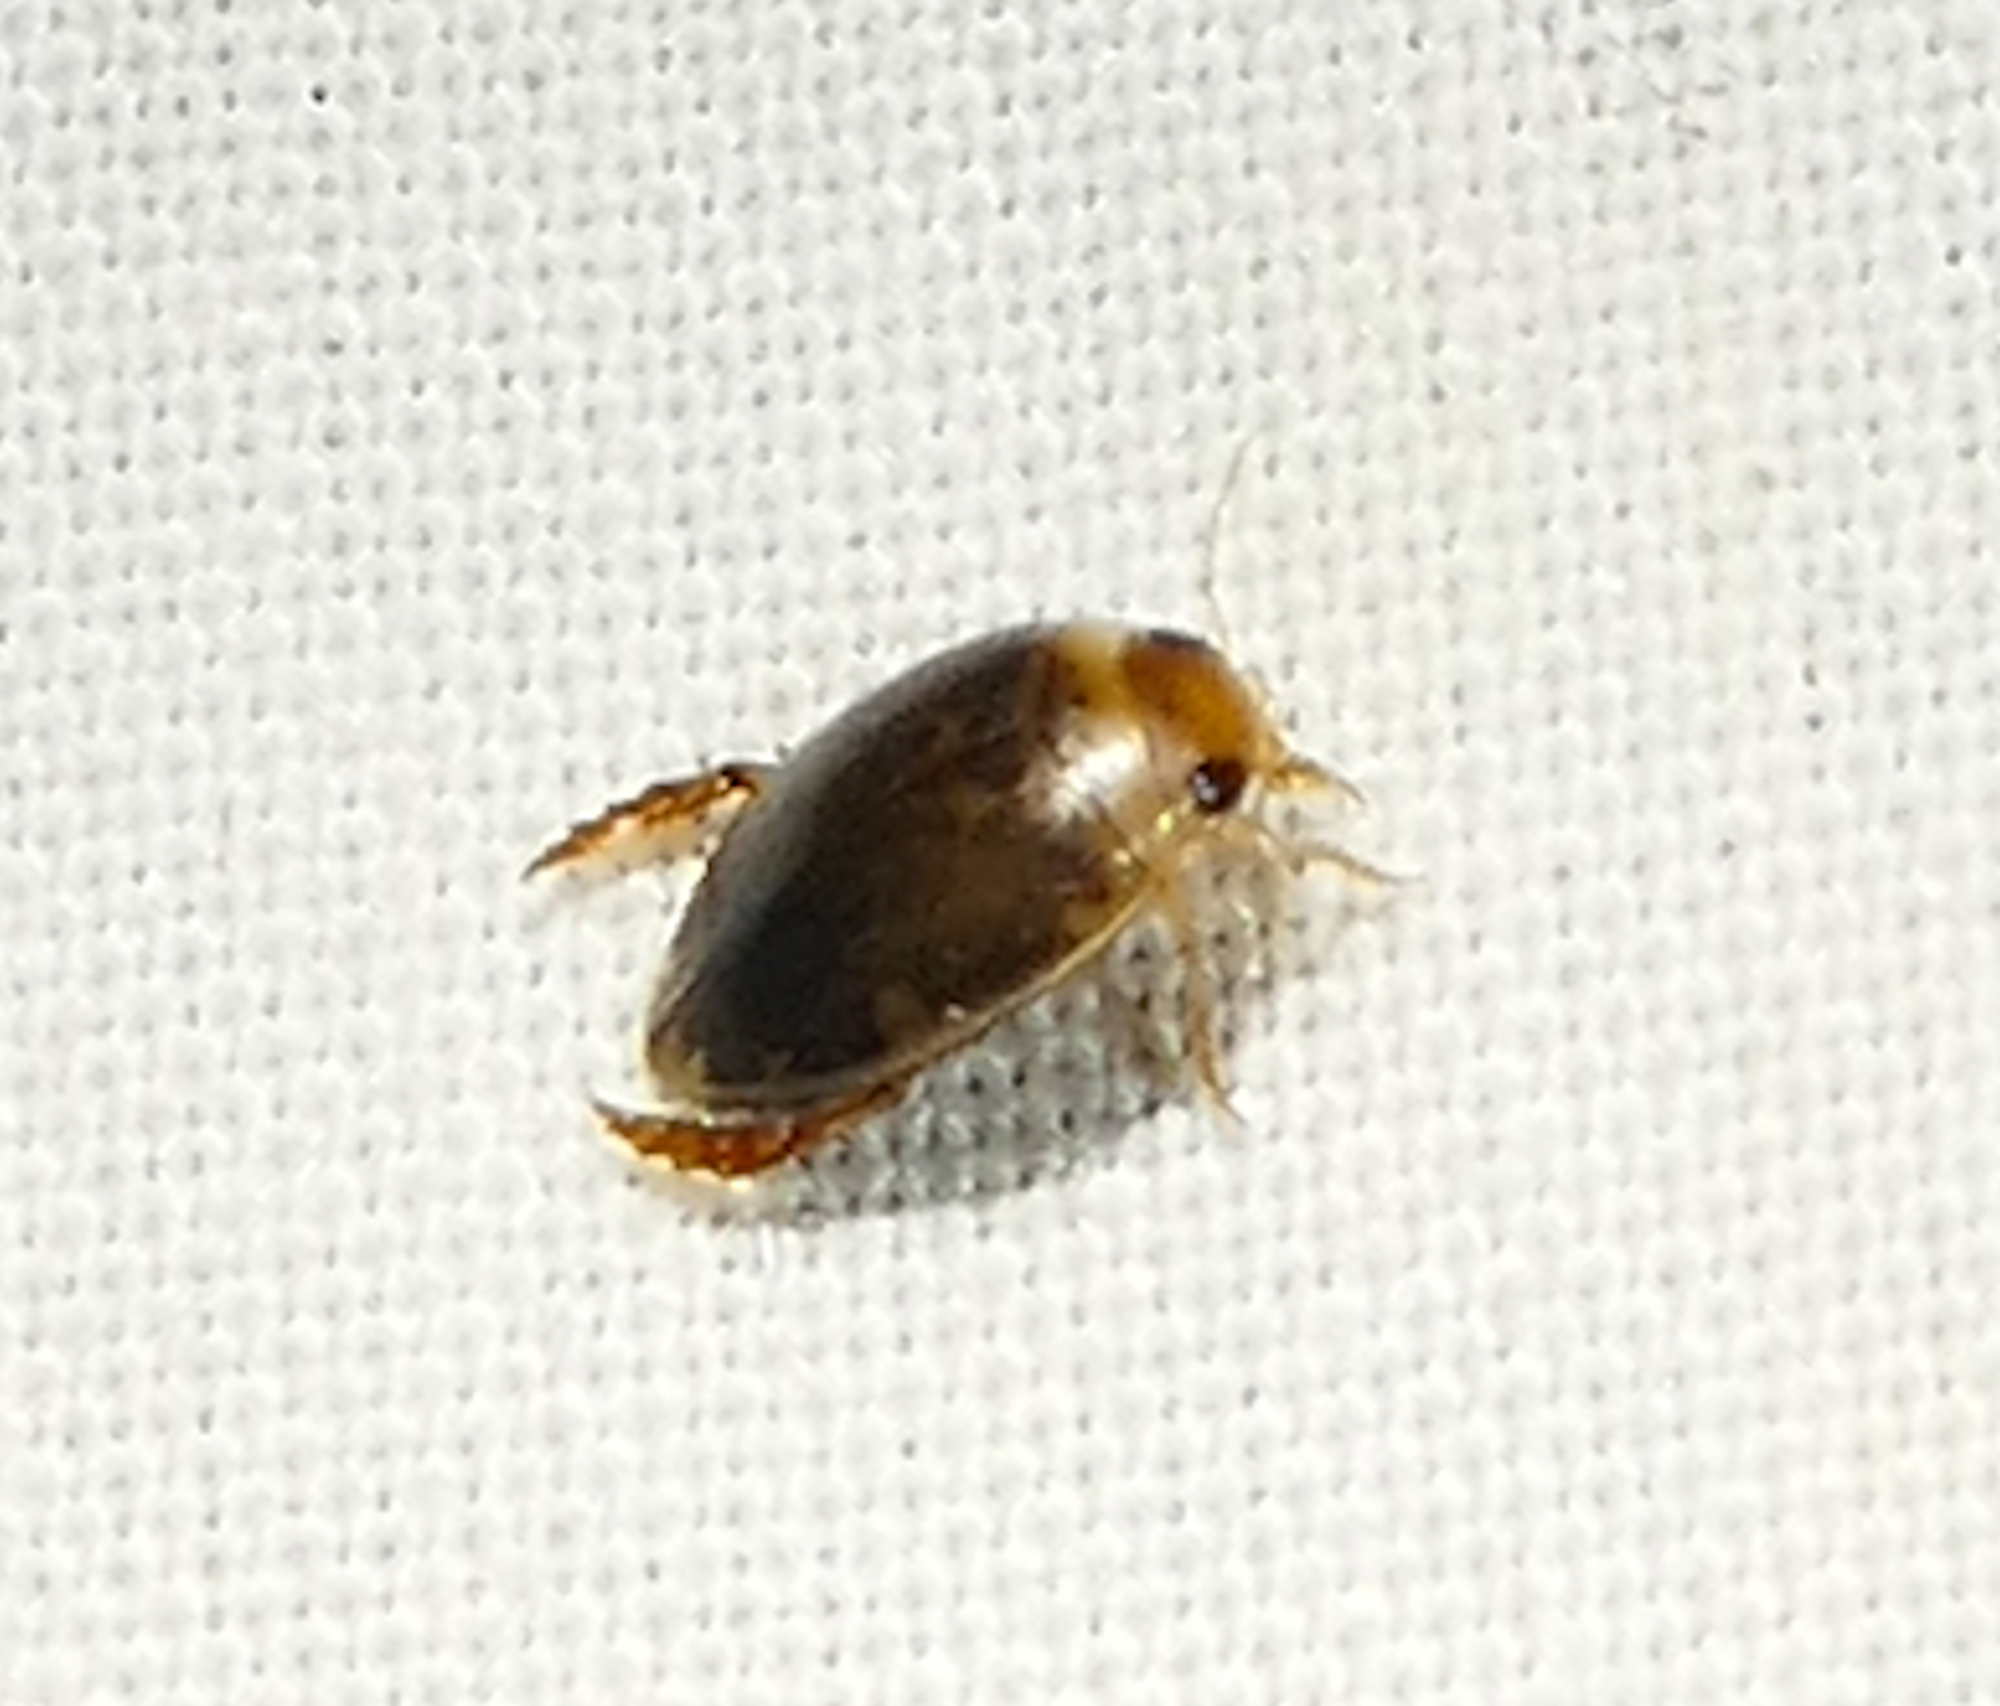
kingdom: Animalia
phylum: Arthropoda
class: Insecta
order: Coleoptera
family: Dytiscidae
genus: Laccophilus
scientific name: Laccophilus
